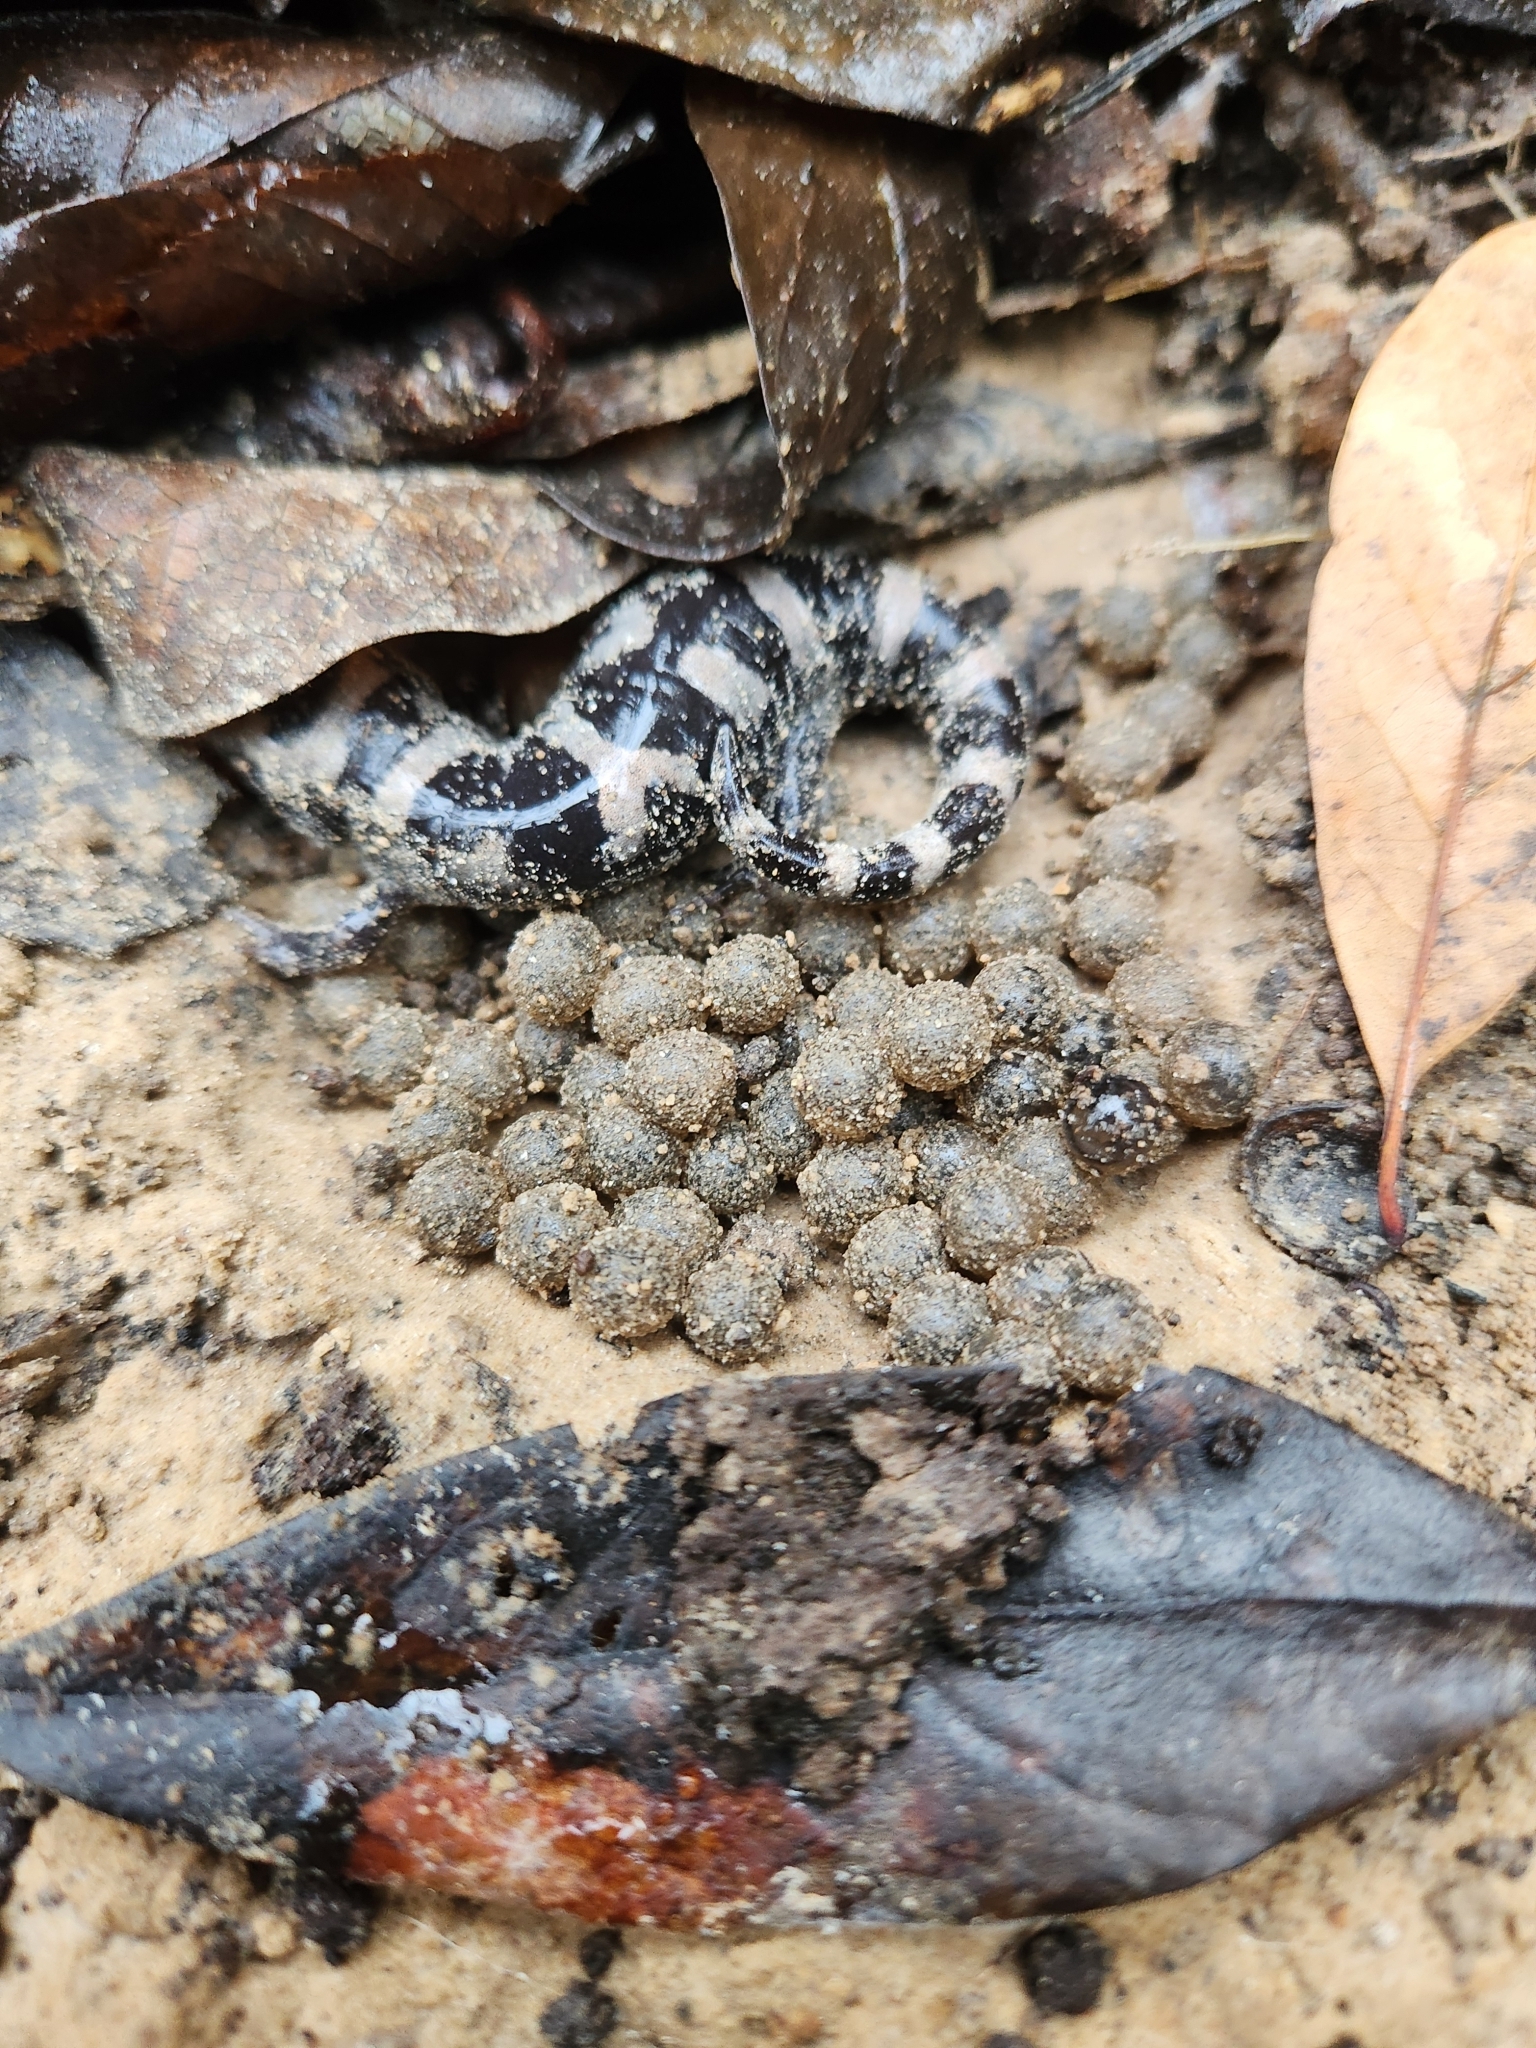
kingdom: Animalia
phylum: Chordata
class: Amphibia
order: Caudata
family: Ambystomatidae
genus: Ambystoma
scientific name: Ambystoma opacum
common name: Marbled salamander
